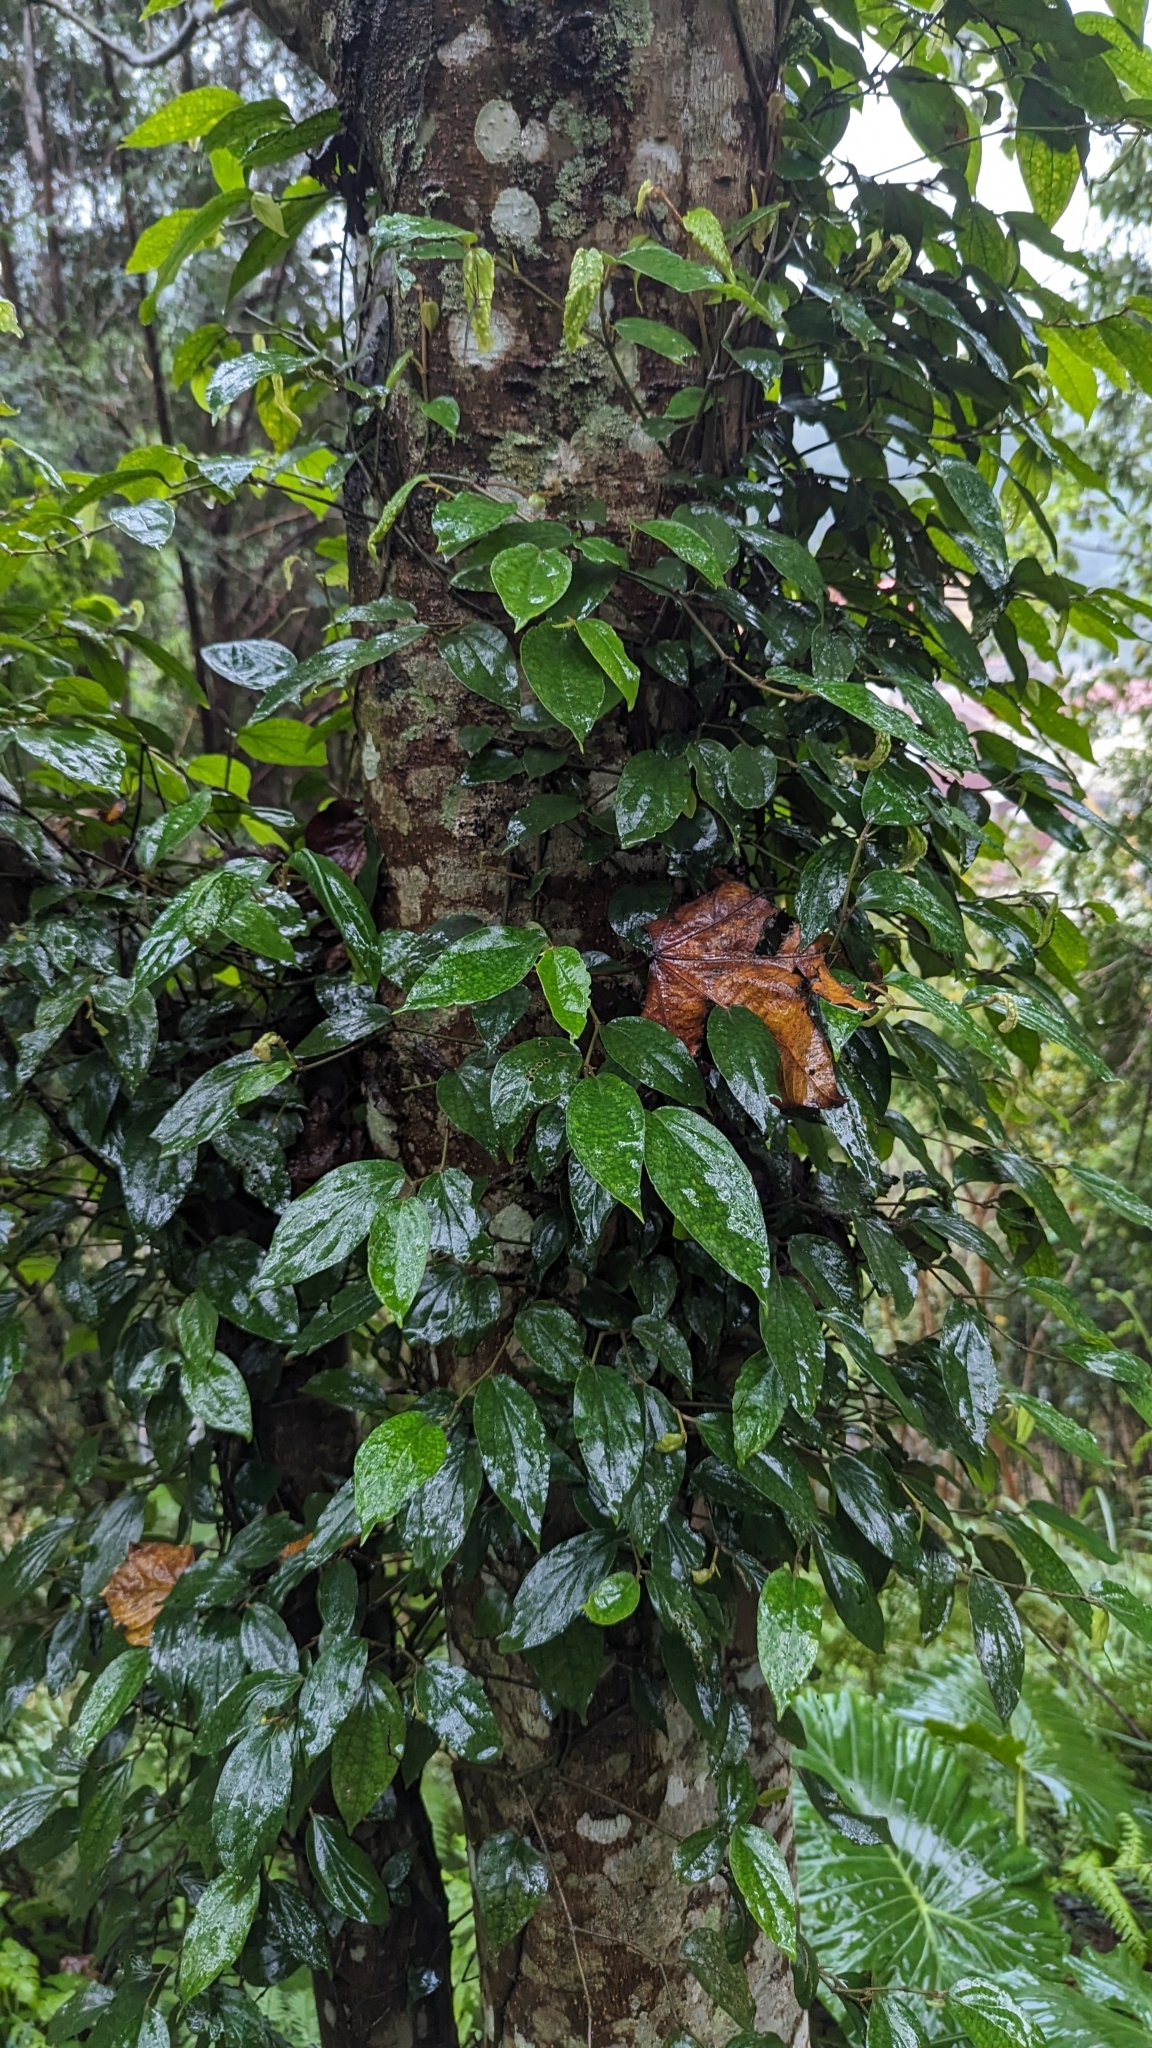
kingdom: Plantae
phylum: Tracheophyta
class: Magnoliopsida
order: Piperales
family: Piperaceae
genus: Piper
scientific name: Piper kadsura
